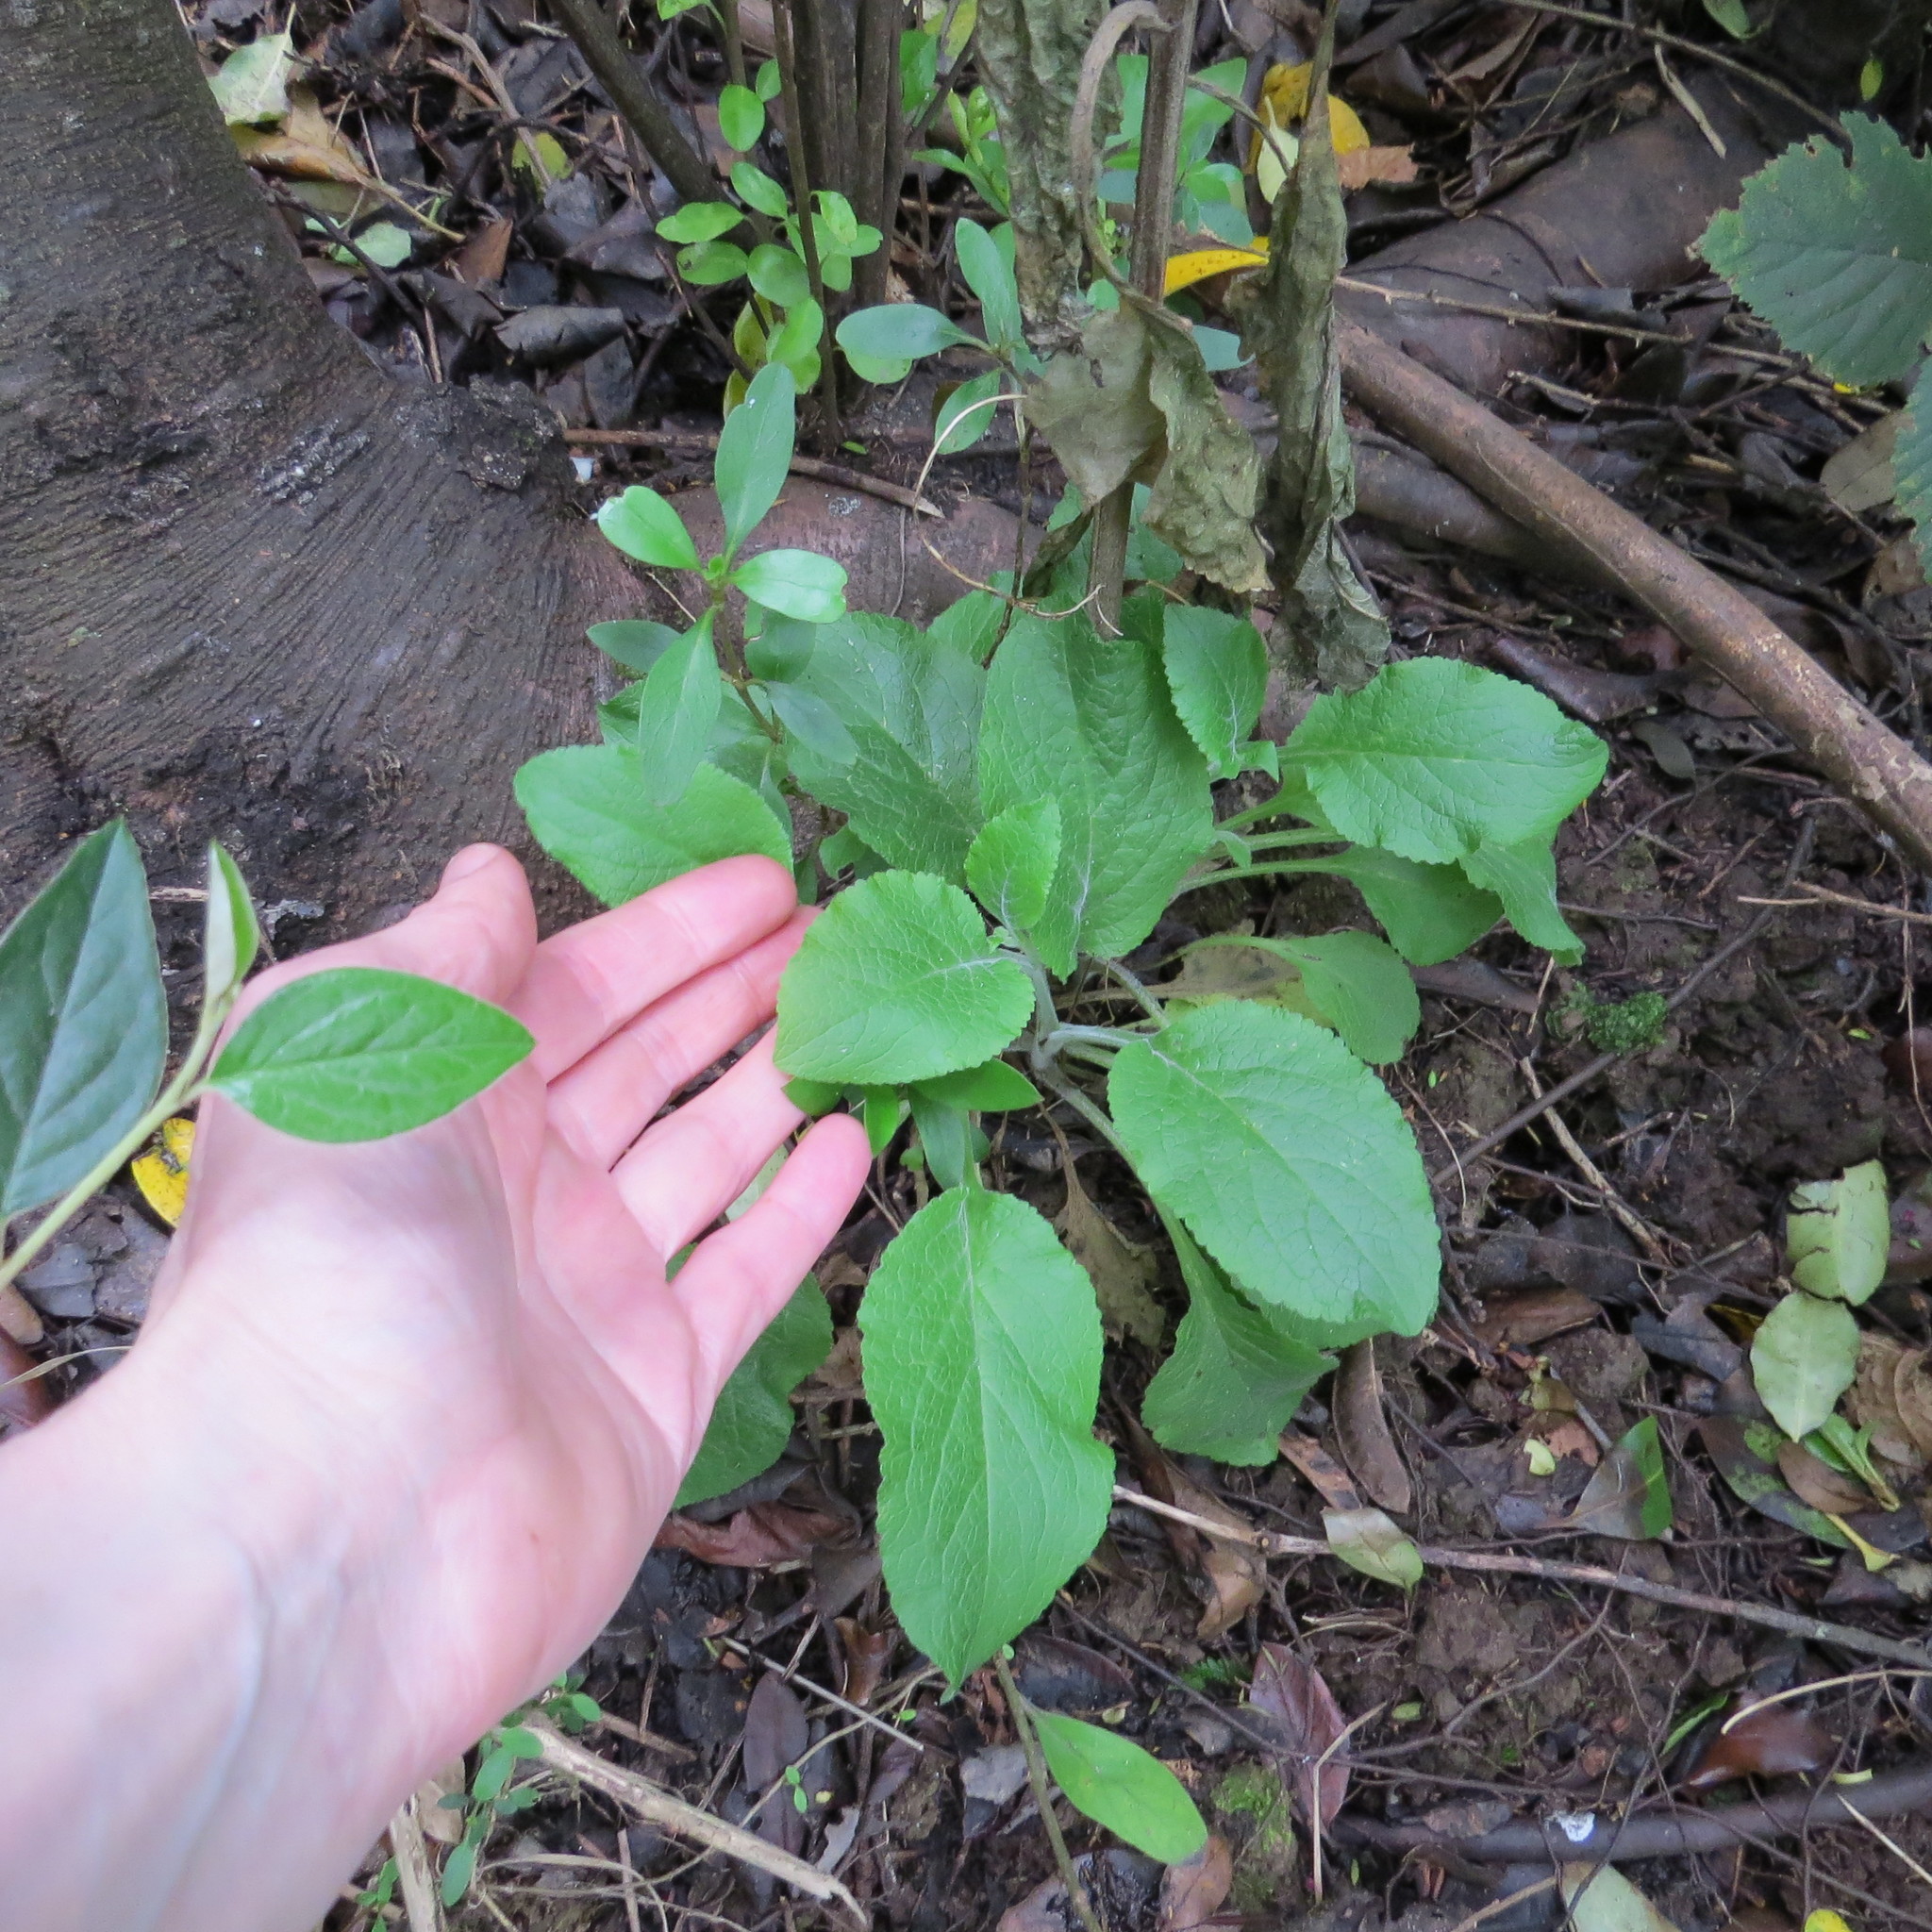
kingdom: Plantae
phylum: Tracheophyta
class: Magnoliopsida
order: Lamiales
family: Plantaginaceae
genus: Digitalis
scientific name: Digitalis purpurea
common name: Foxglove
